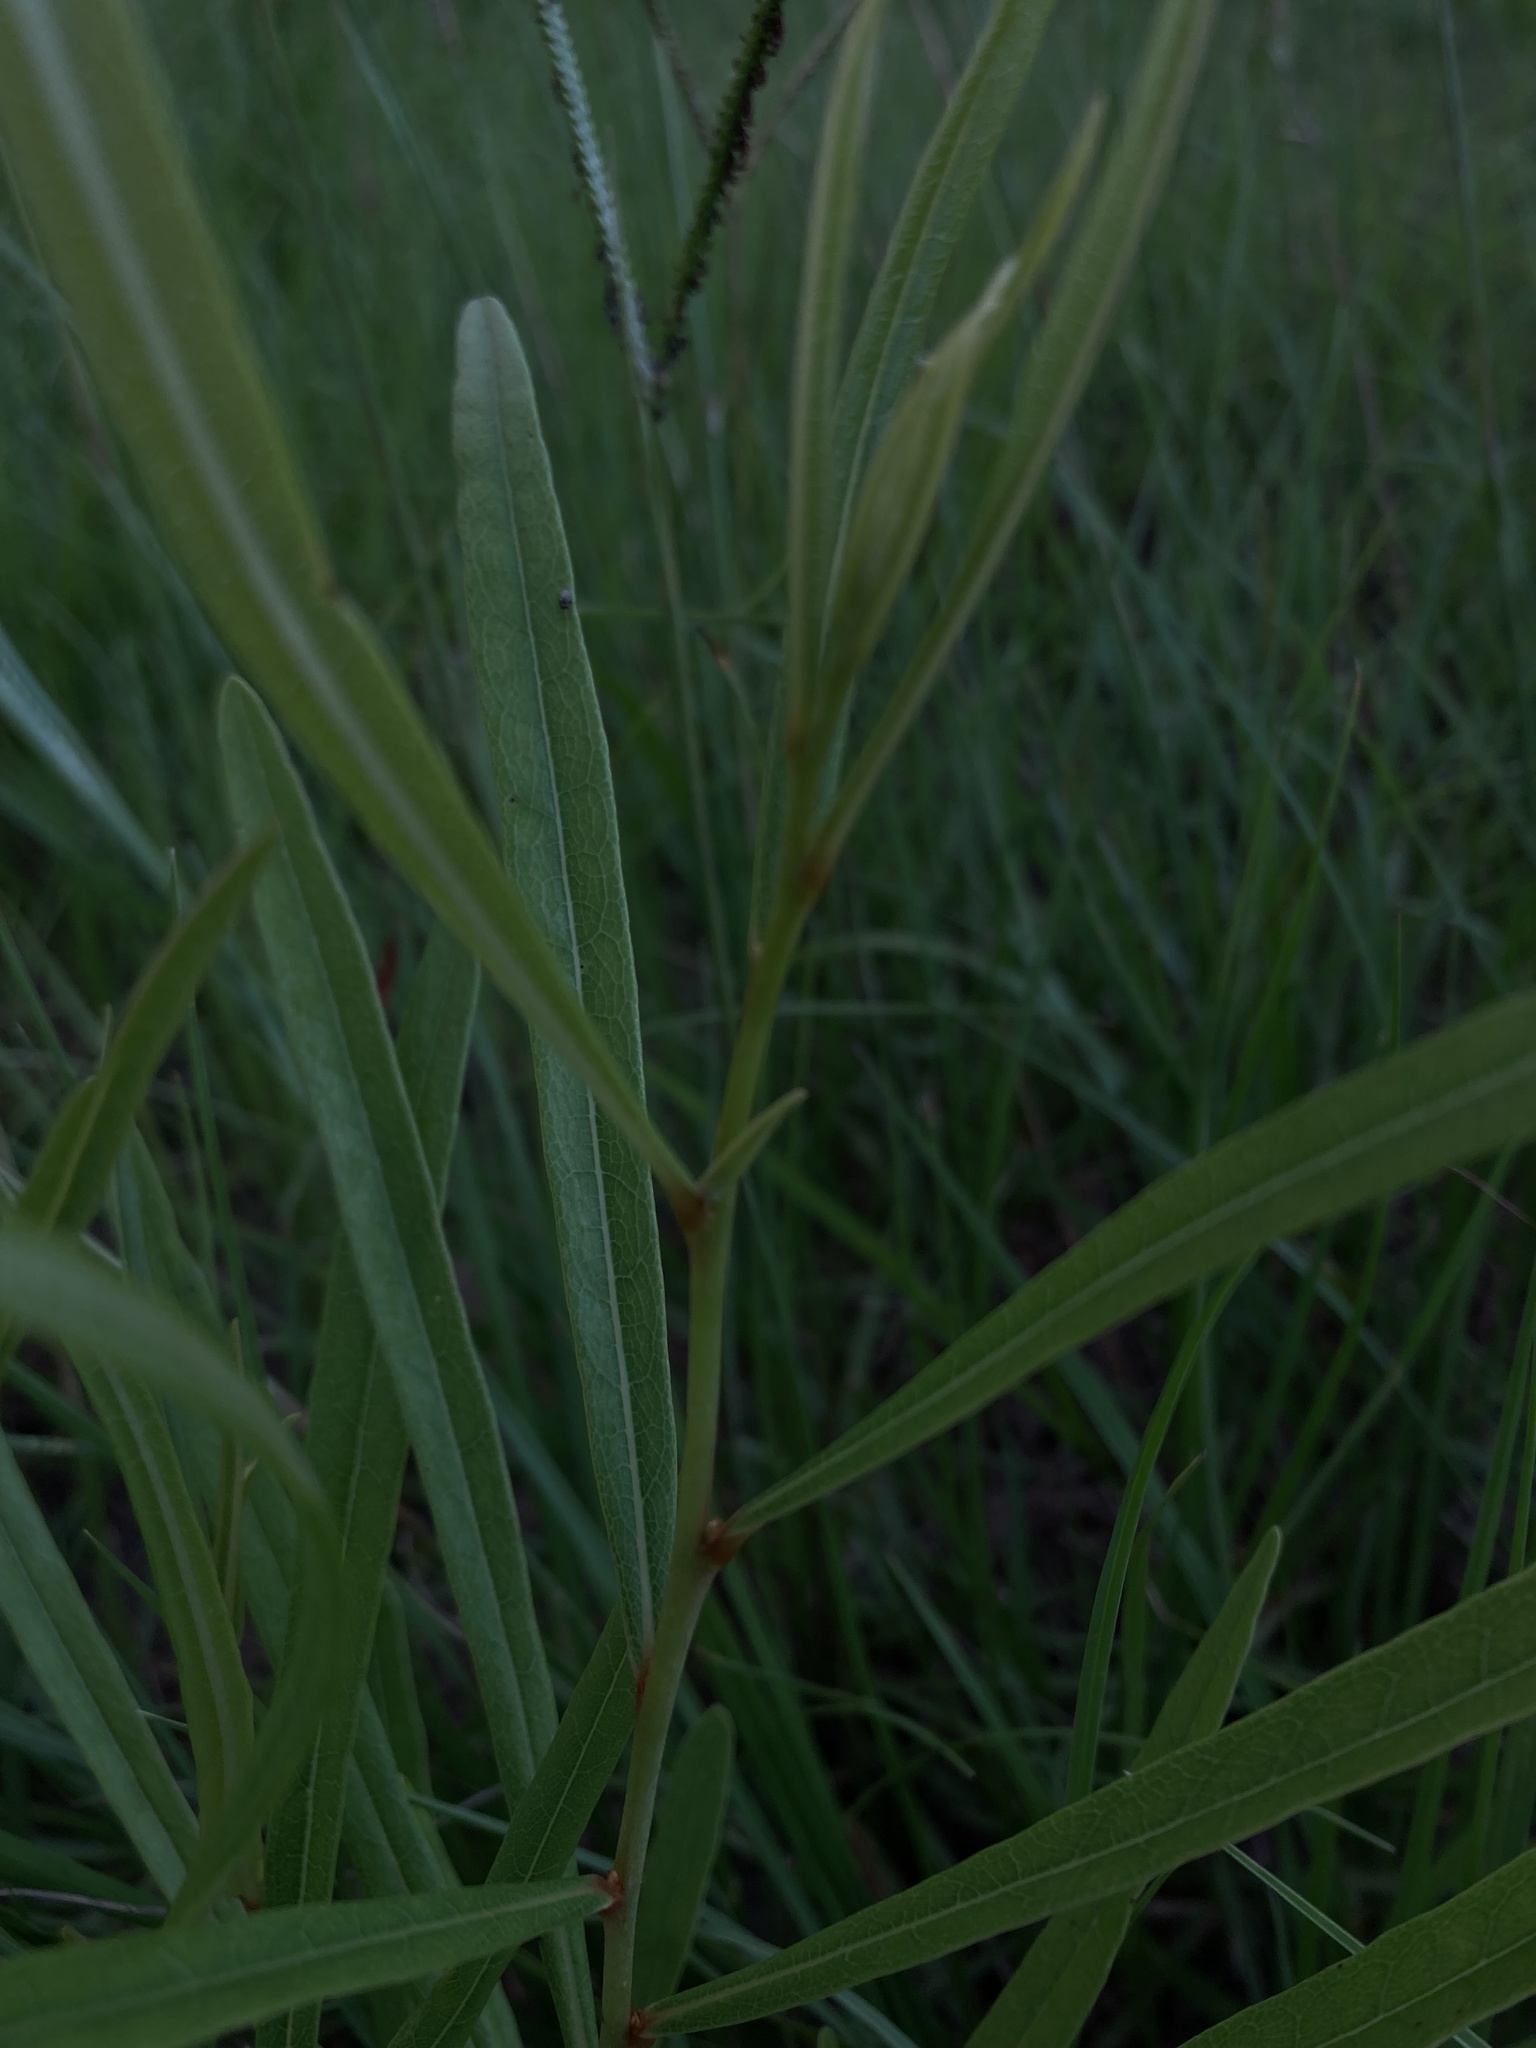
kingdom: Plantae
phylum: Tracheophyta
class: Magnoliopsida
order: Magnoliales
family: Annonaceae
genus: Asimina
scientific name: Asimina longifolia
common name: Polecatbush
